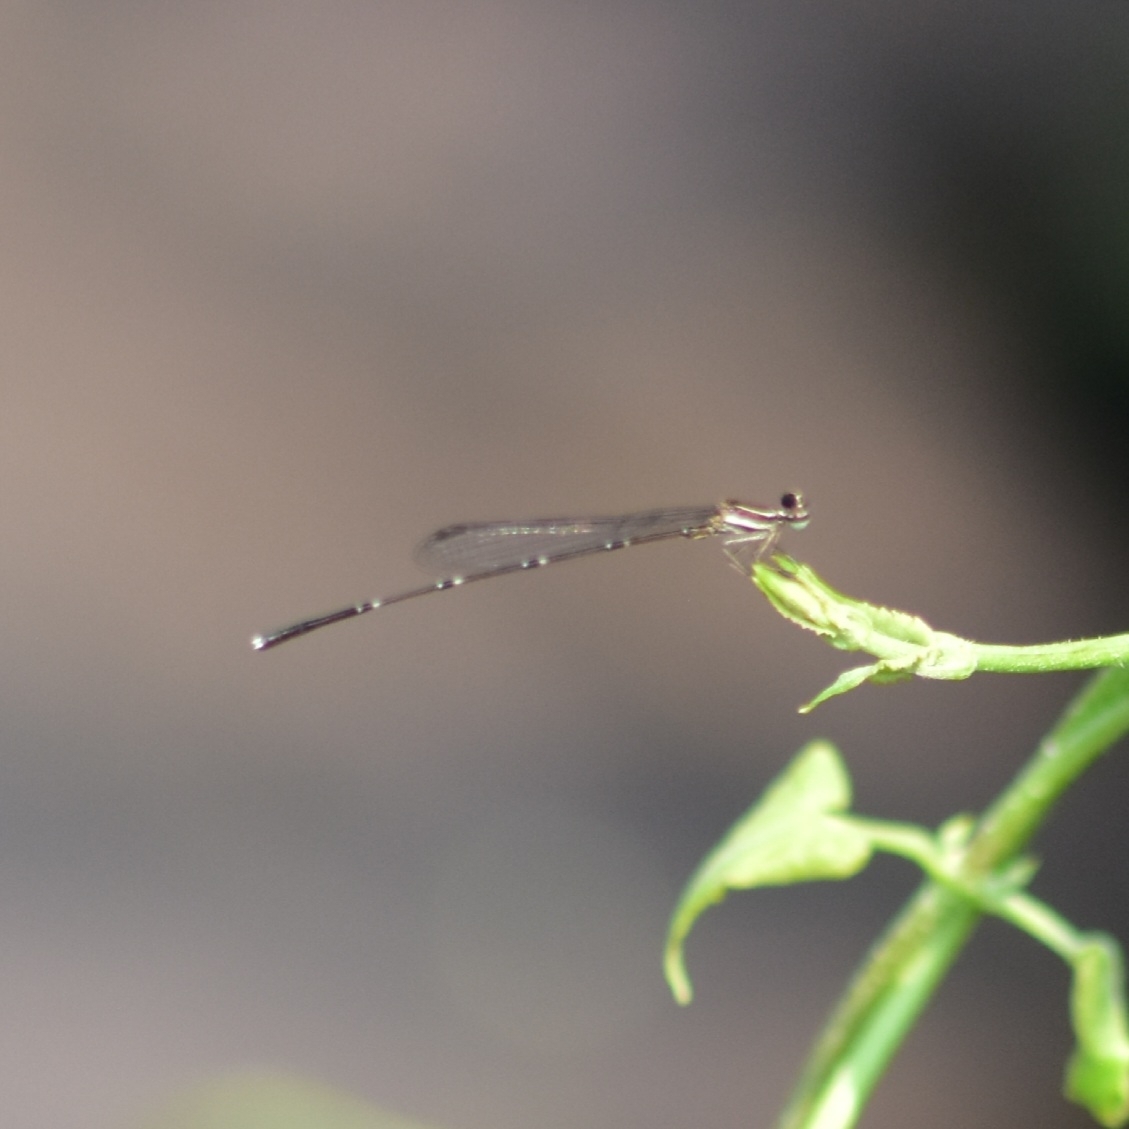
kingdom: Animalia
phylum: Arthropoda
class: Insecta
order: Odonata
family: Platycnemididae
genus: Prodasineura
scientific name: Prodasineura verticalis
